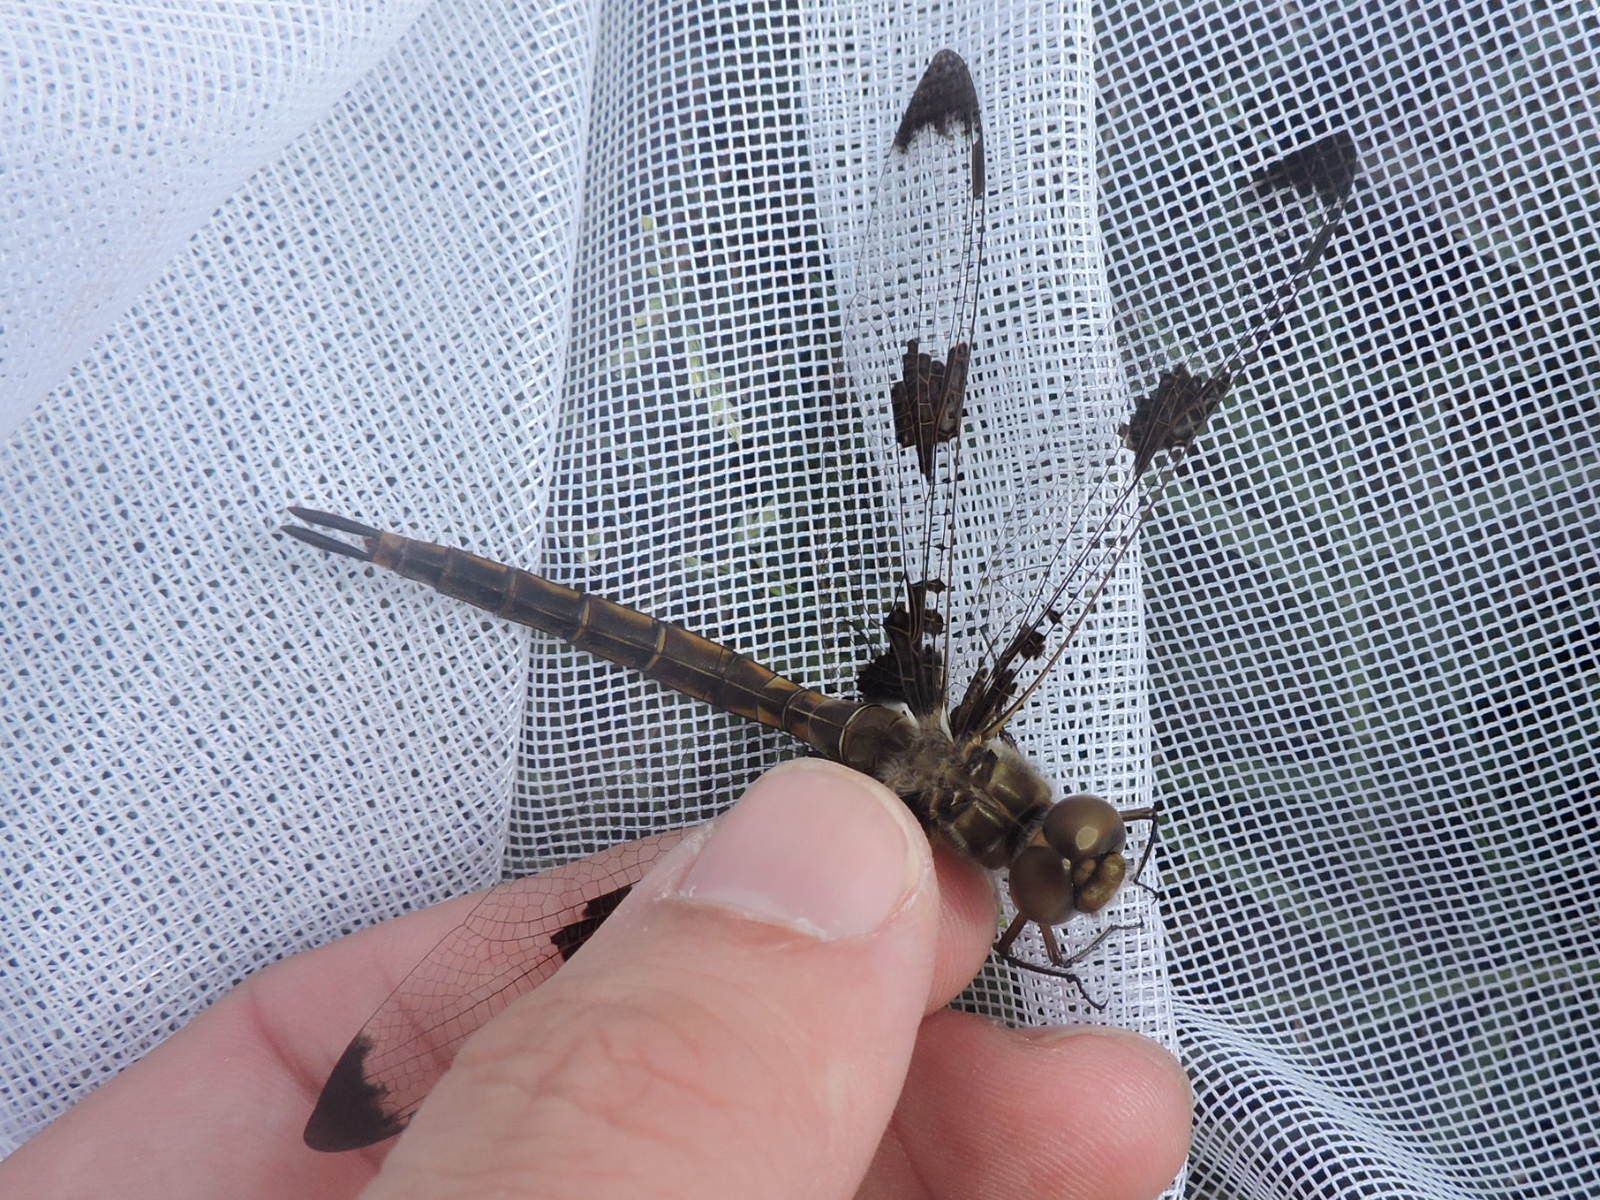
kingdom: Animalia
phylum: Arthropoda
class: Insecta
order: Odonata
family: Corduliidae
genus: Epitheca
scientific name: Epitheca princeps
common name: Prince baskettail
